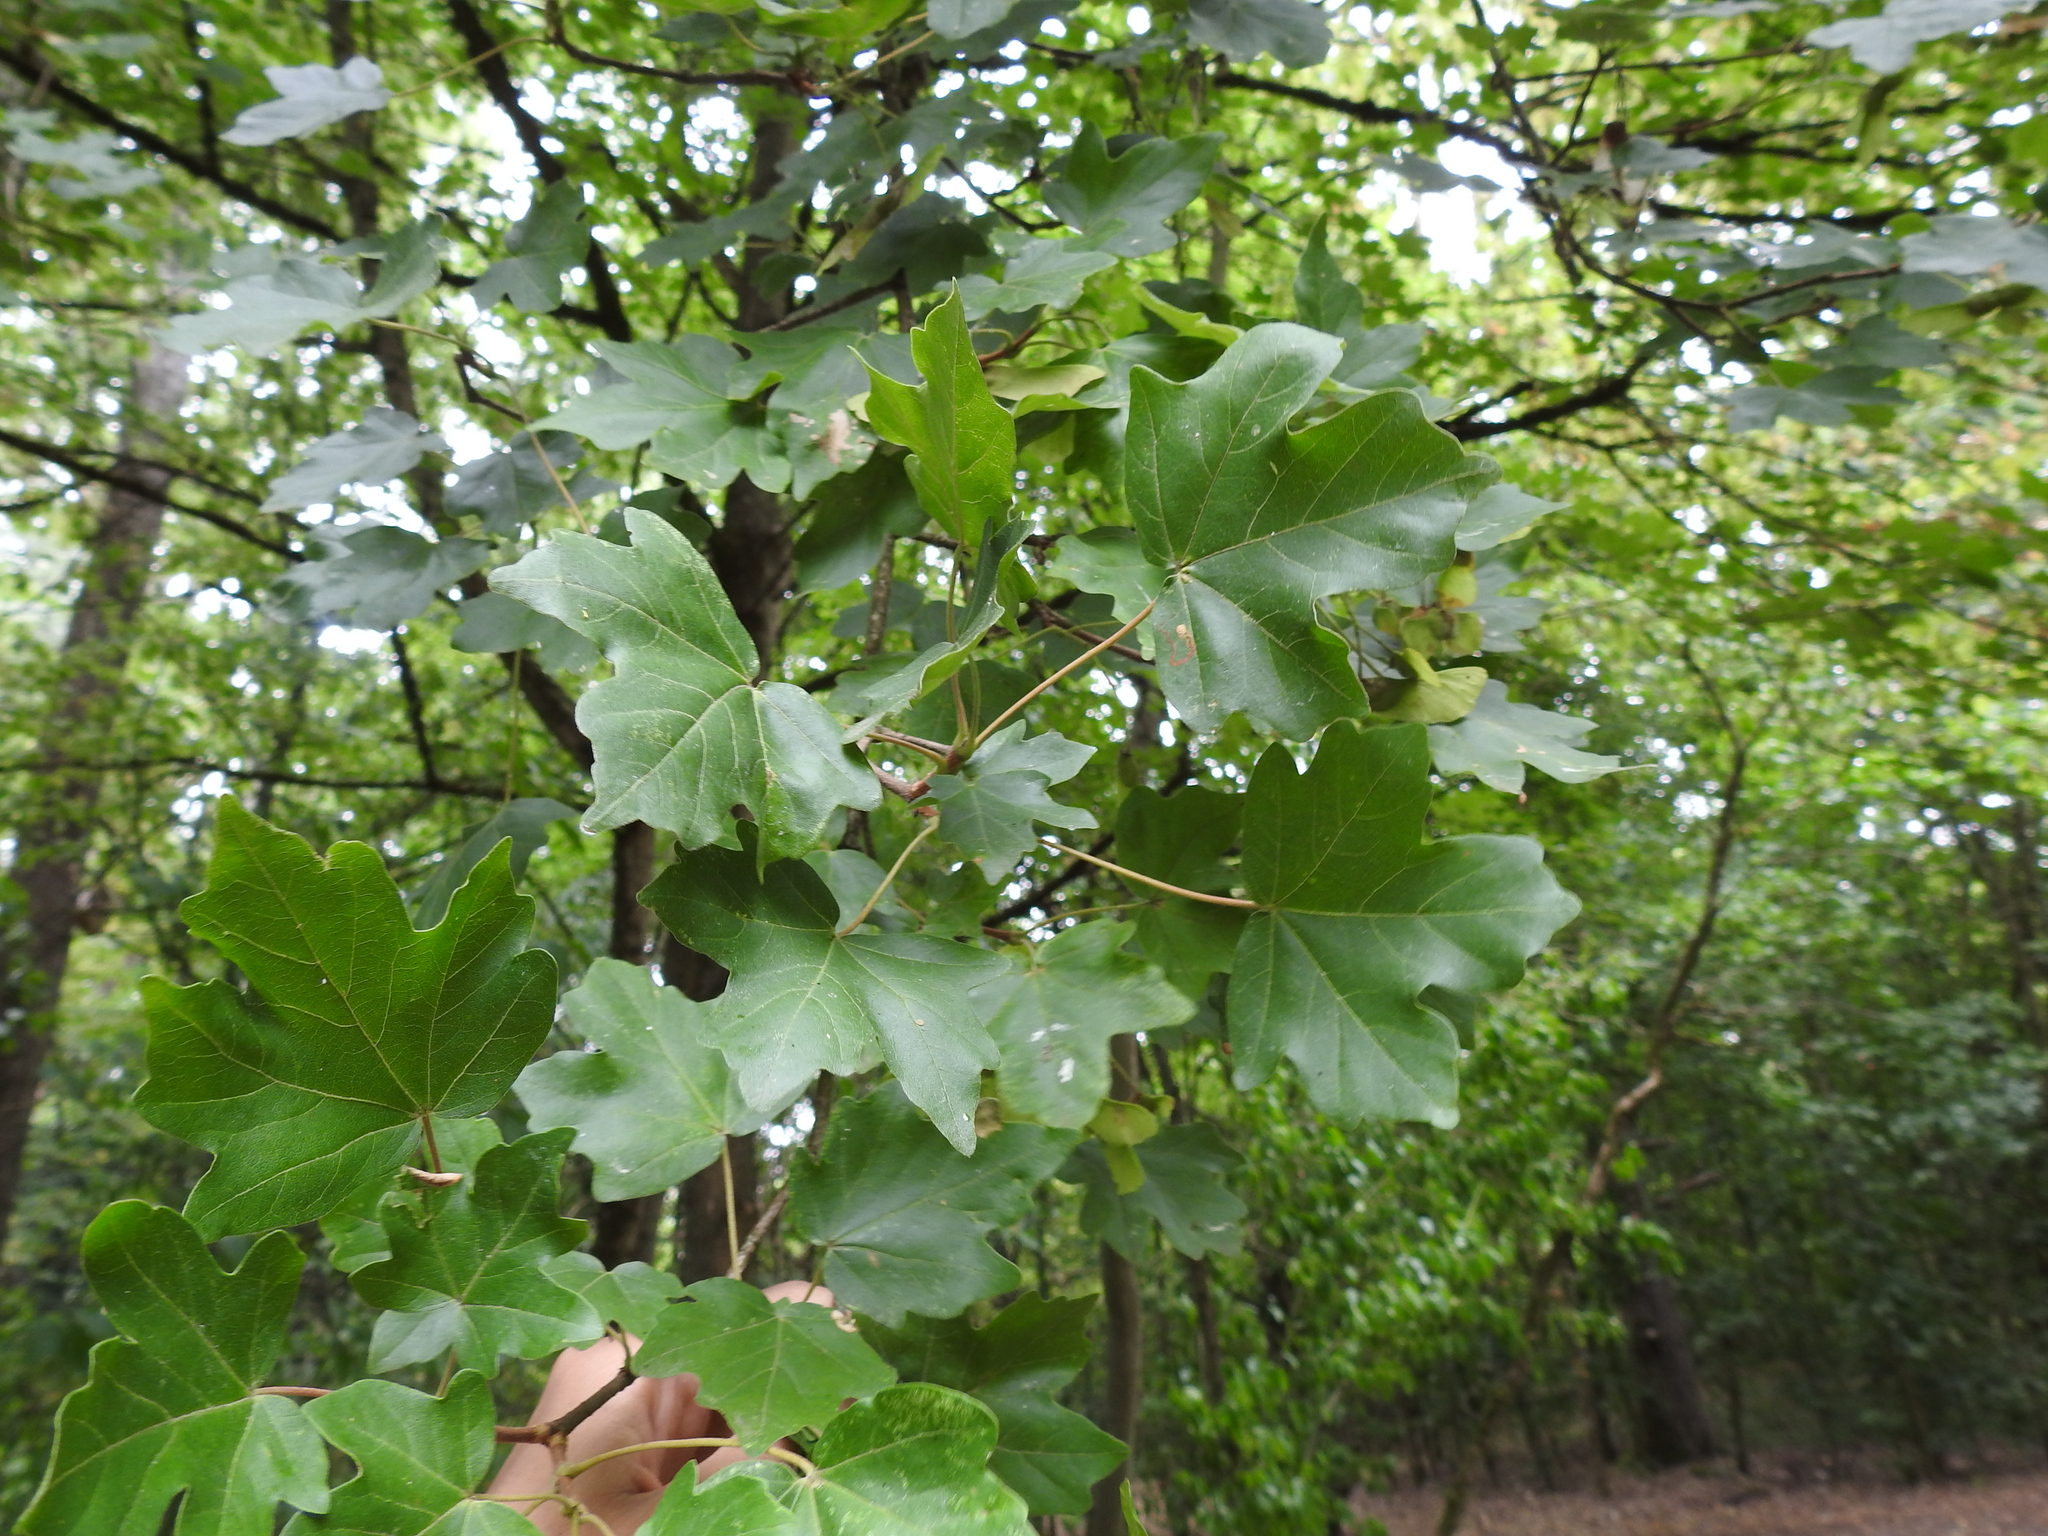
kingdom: Plantae
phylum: Tracheophyta
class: Magnoliopsida
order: Sapindales
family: Sapindaceae
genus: Acer
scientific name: Acer campestre
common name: Field maple
